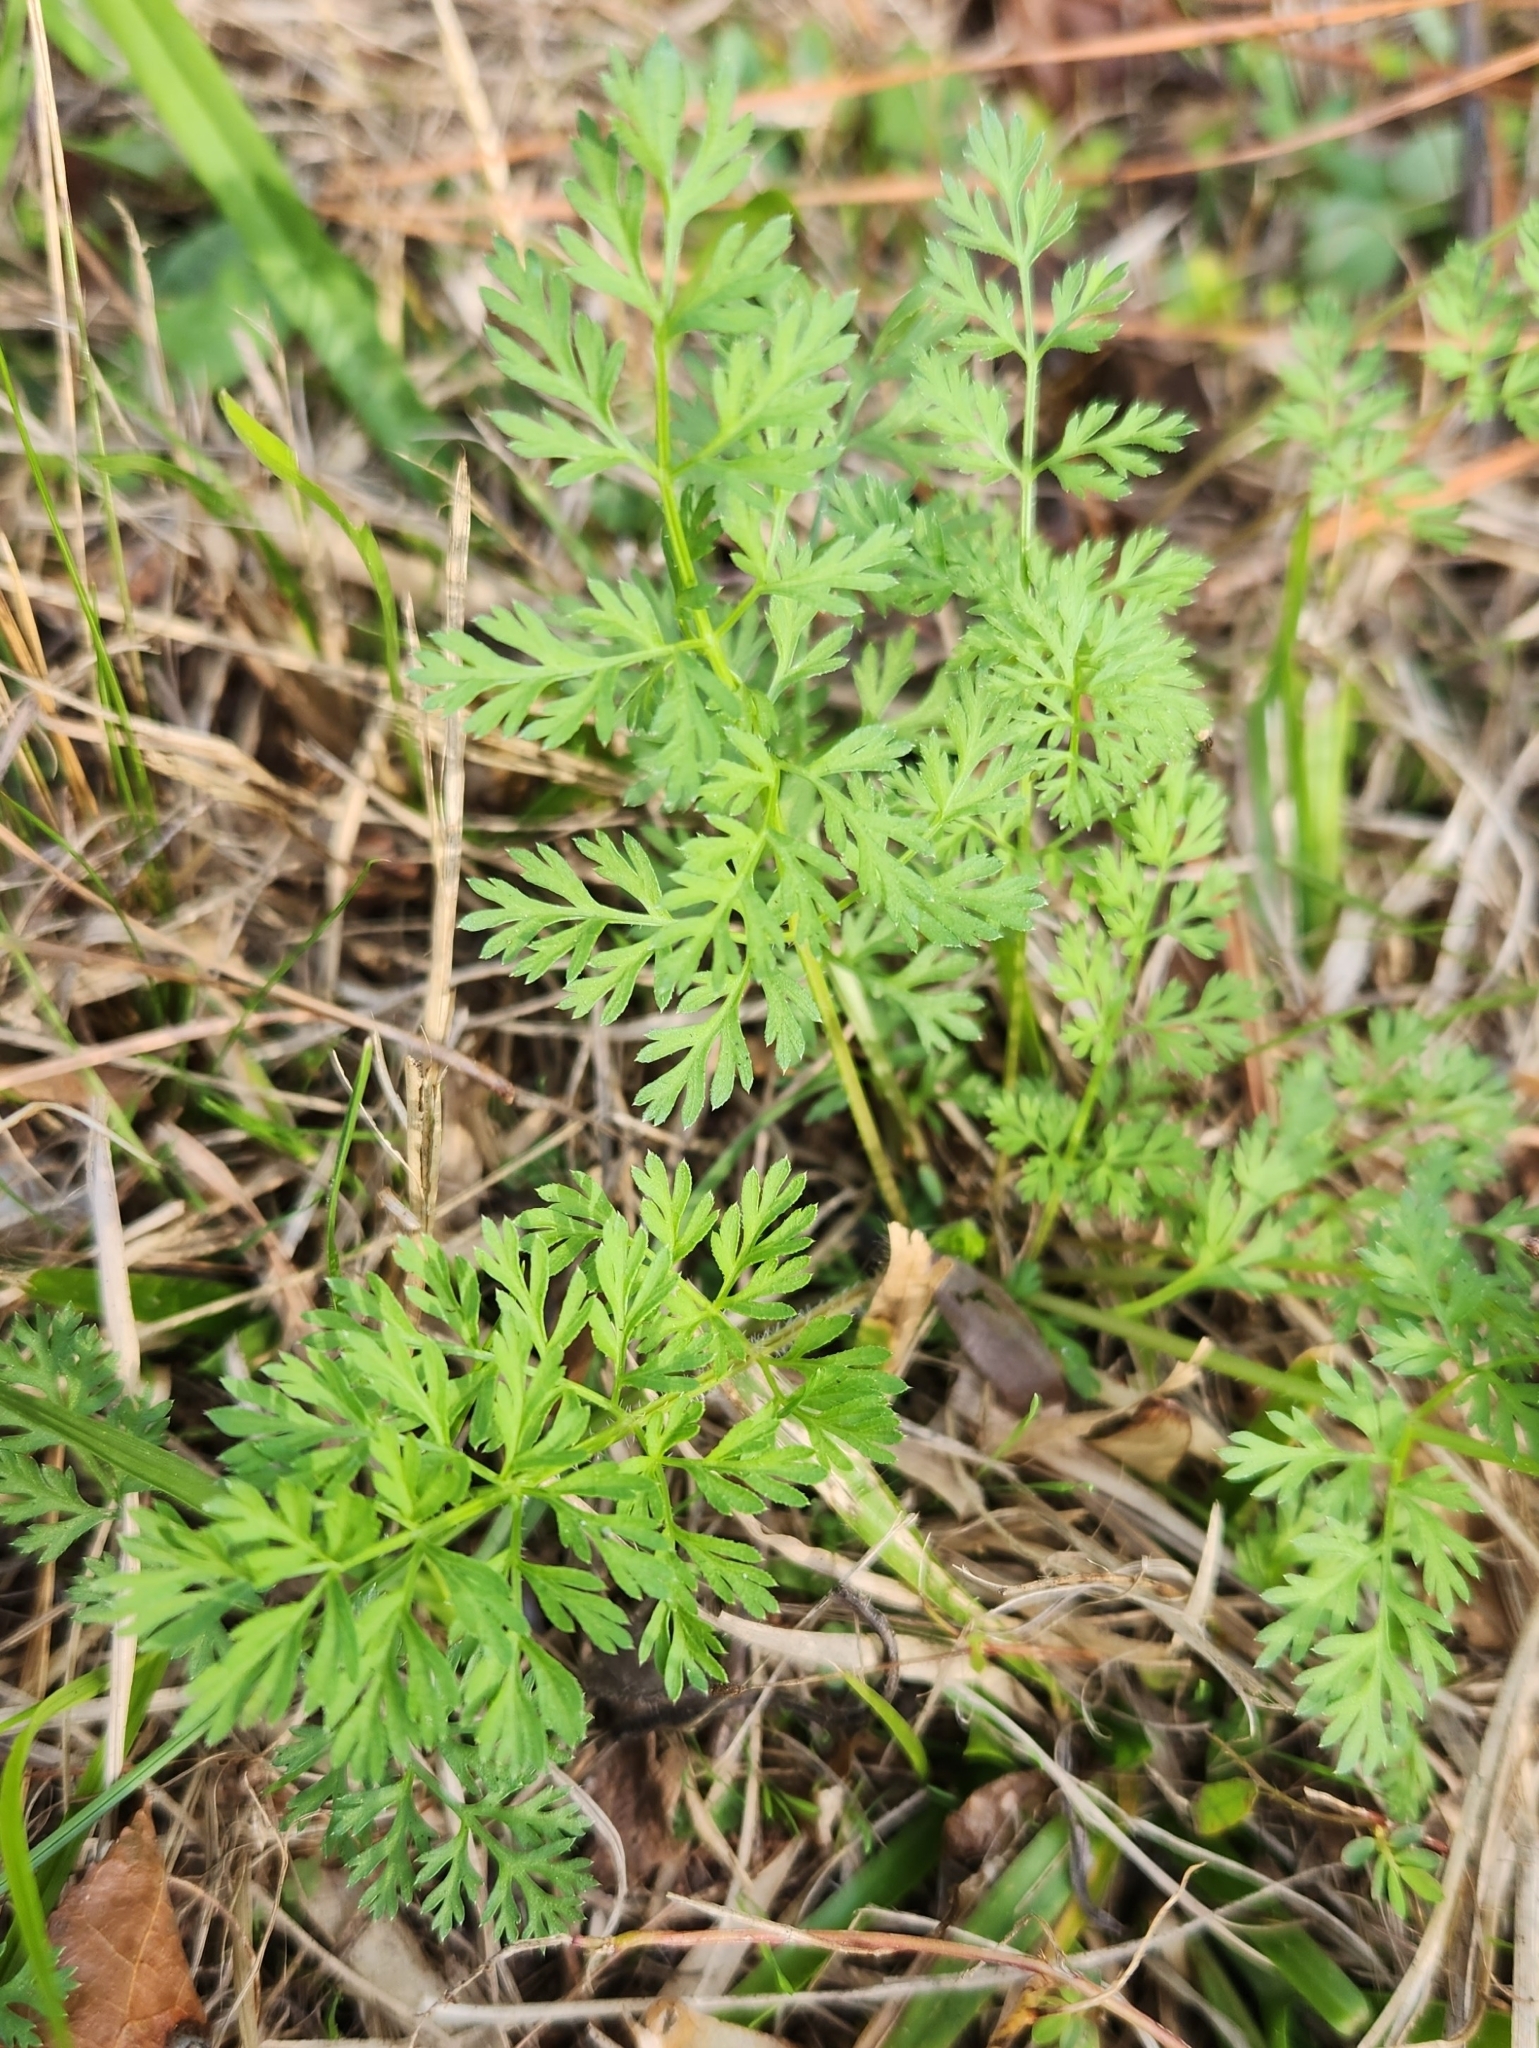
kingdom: Plantae
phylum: Tracheophyta
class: Magnoliopsida
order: Apiales
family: Apiaceae
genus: Chaerophyllum
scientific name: Chaerophyllum tainturieri
